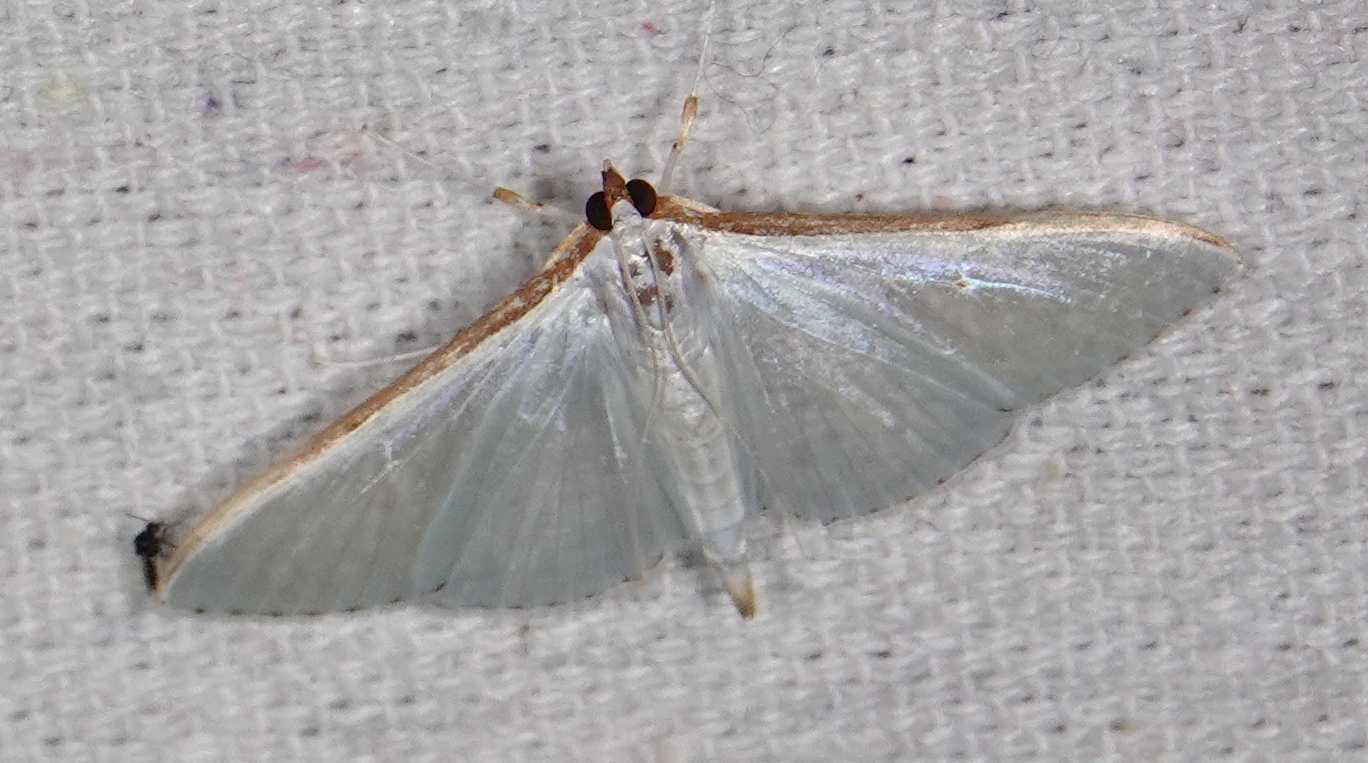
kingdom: Animalia
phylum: Arthropoda
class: Insecta
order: Lepidoptera
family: Crambidae
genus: Diaphania
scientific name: Diaphania costata
